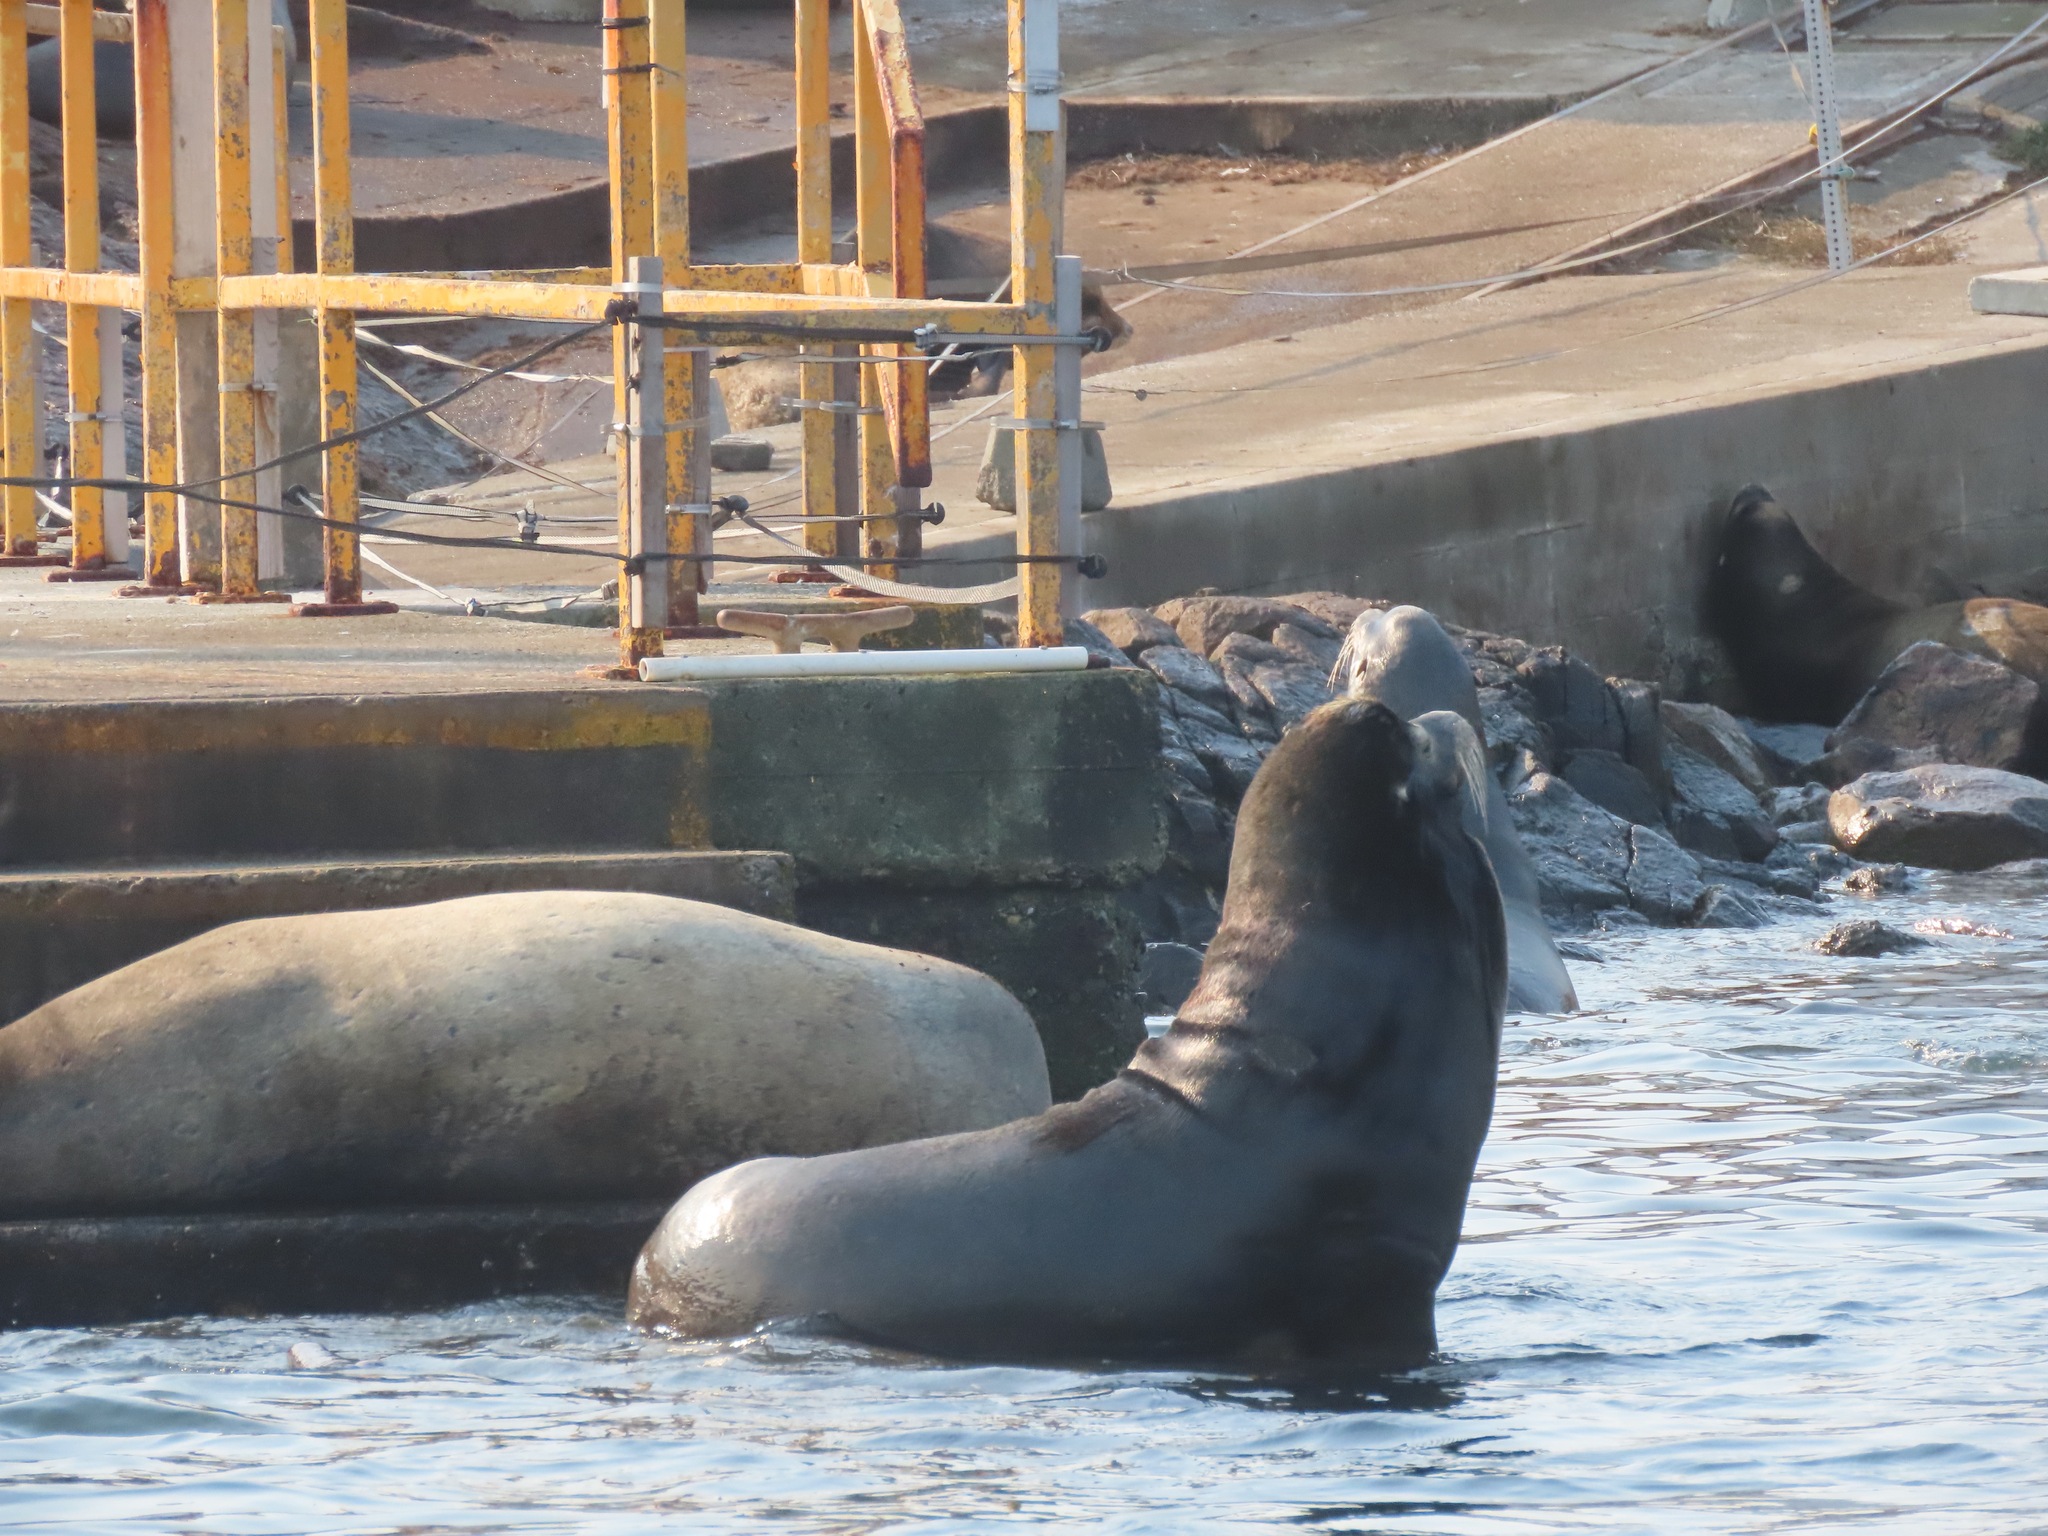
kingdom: Animalia
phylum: Chordata
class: Mammalia
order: Carnivora
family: Otariidae
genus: Zalophus
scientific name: Zalophus californianus
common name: California sea lion
